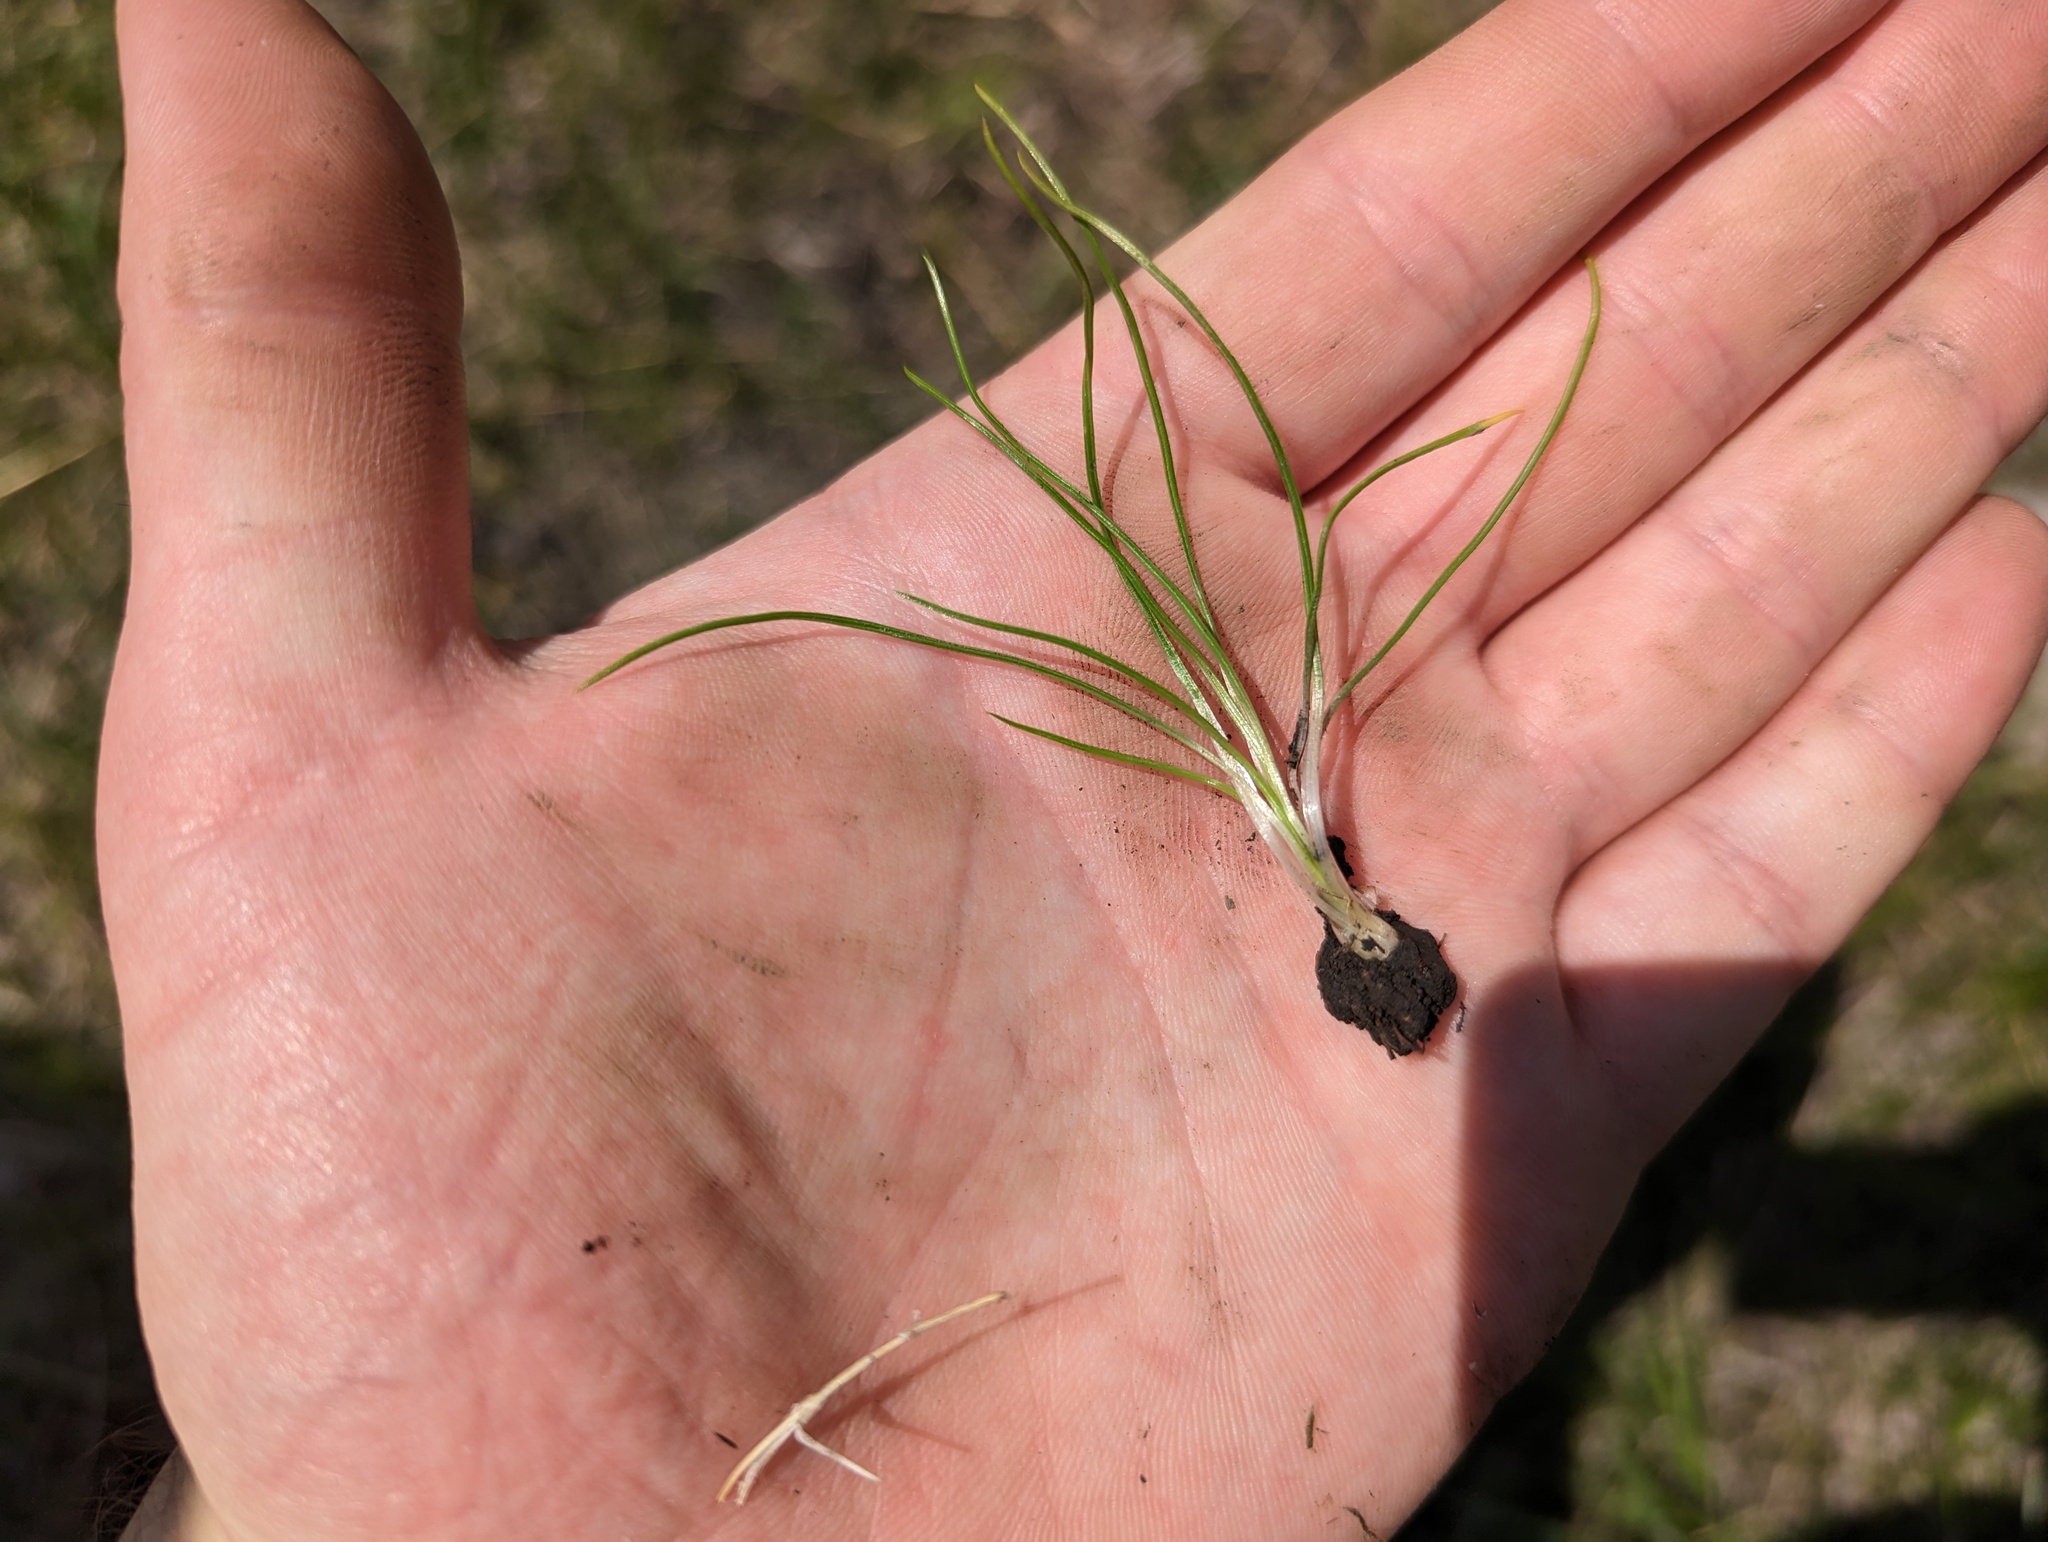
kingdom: Plantae
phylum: Tracheophyta
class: Lycopodiopsida
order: Isoetales
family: Isoetaceae
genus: Isoetes
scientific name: Isoetes butleri
